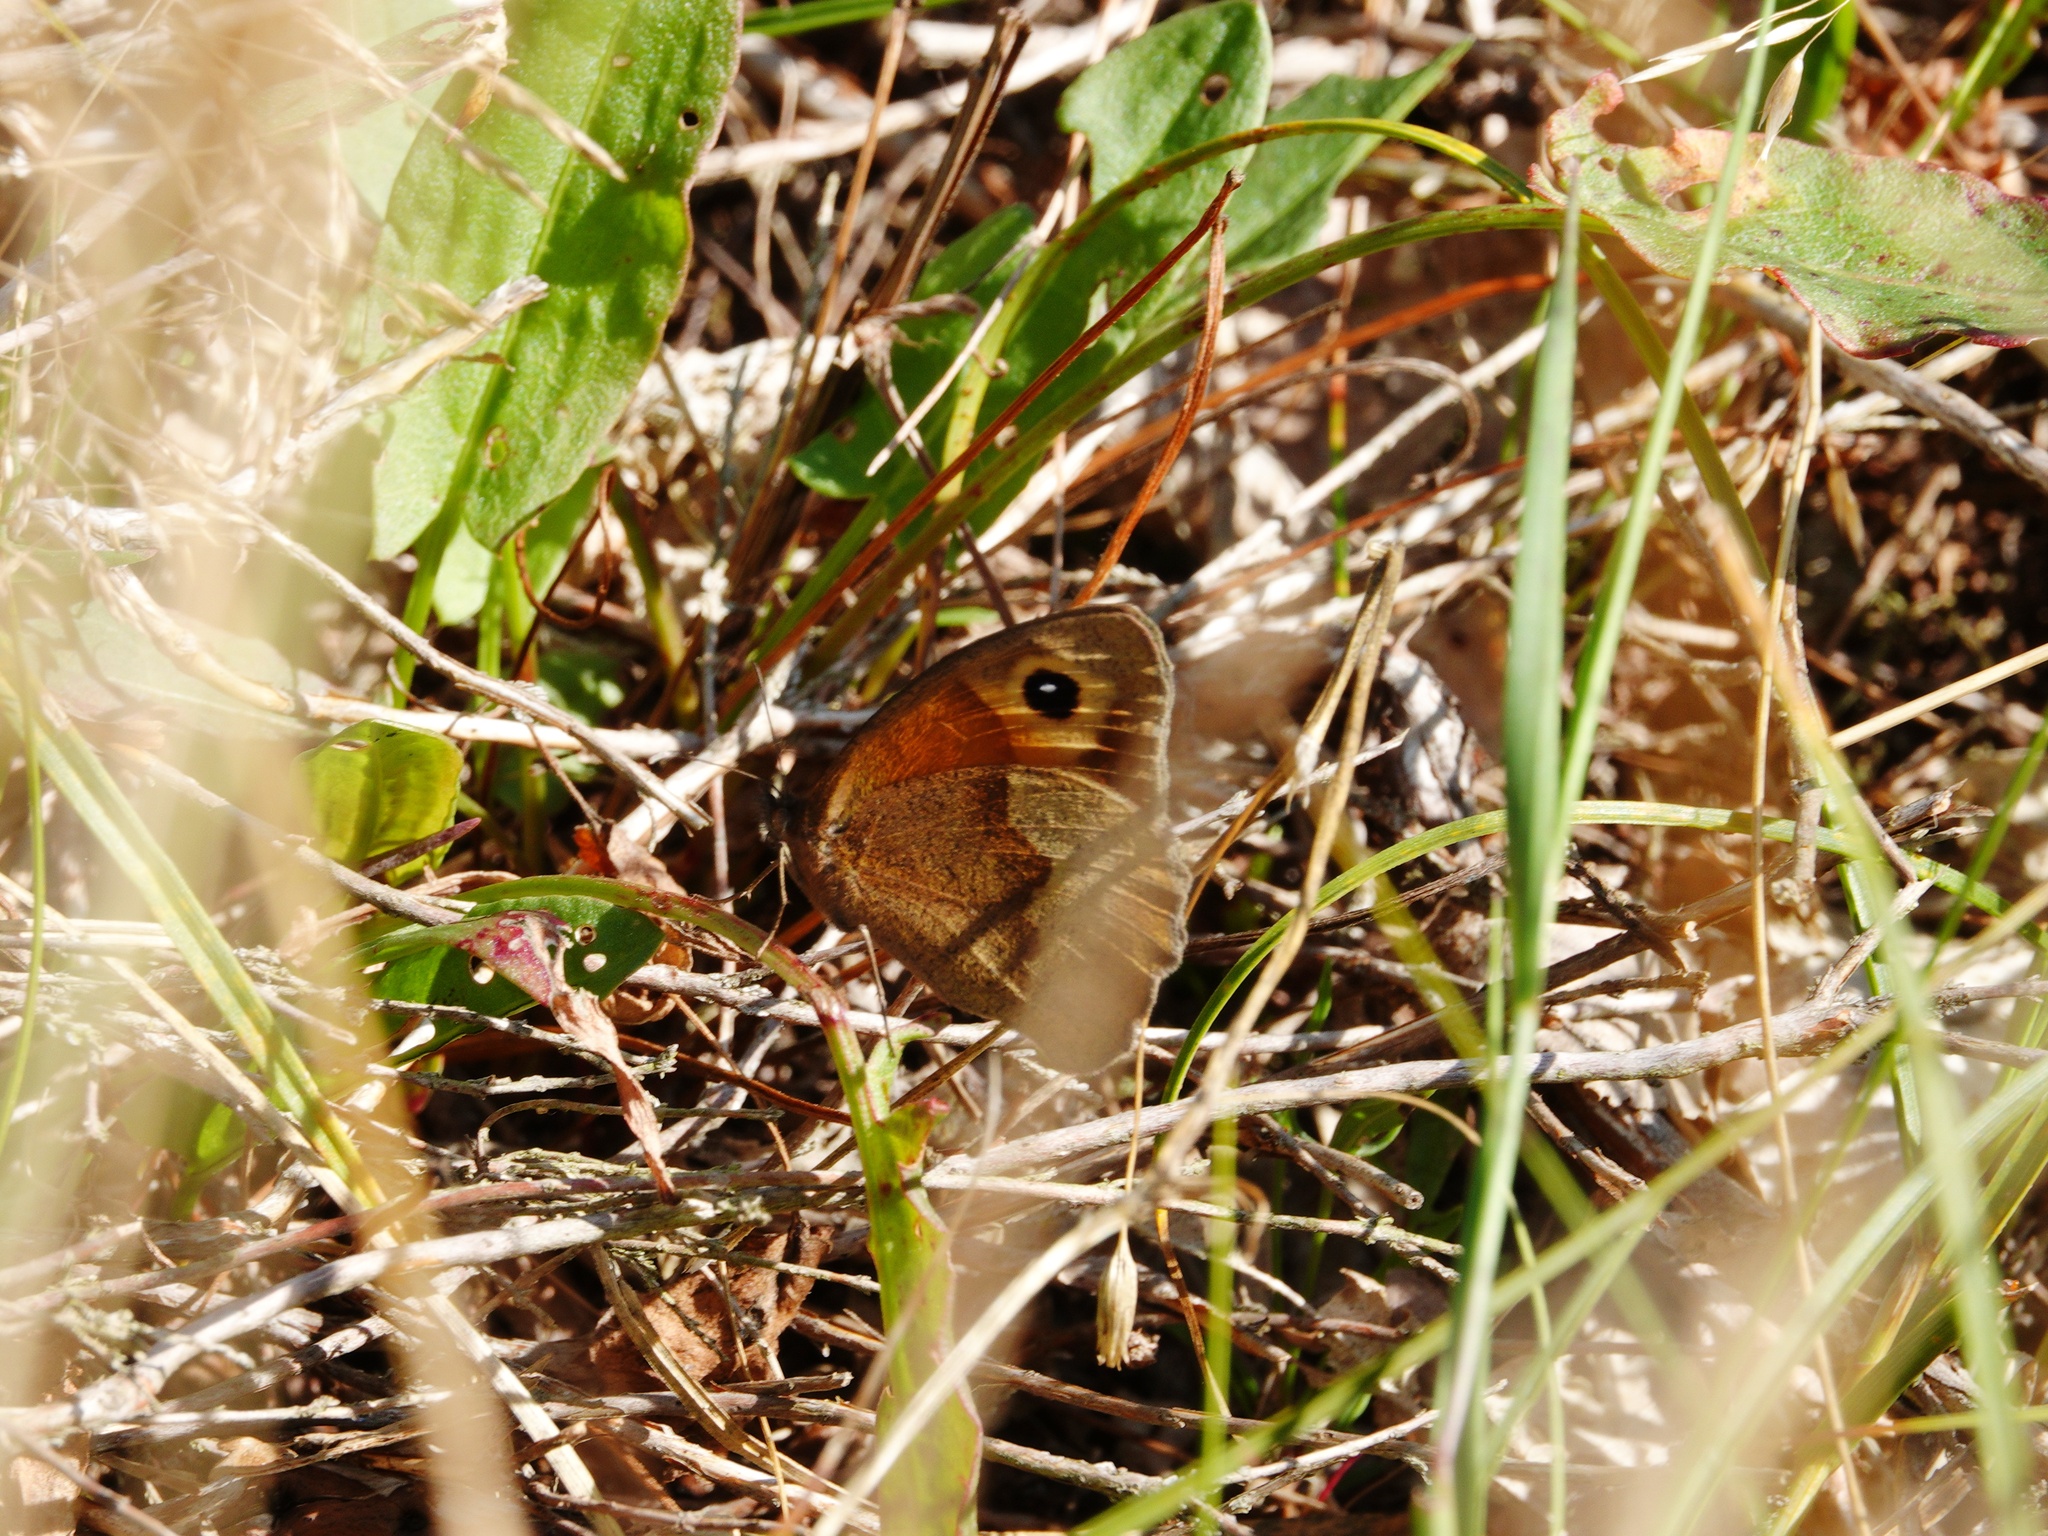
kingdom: Animalia
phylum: Arthropoda
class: Insecta
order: Lepidoptera
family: Nymphalidae
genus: Maniola
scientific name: Maniola jurtina
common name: Meadow brown
